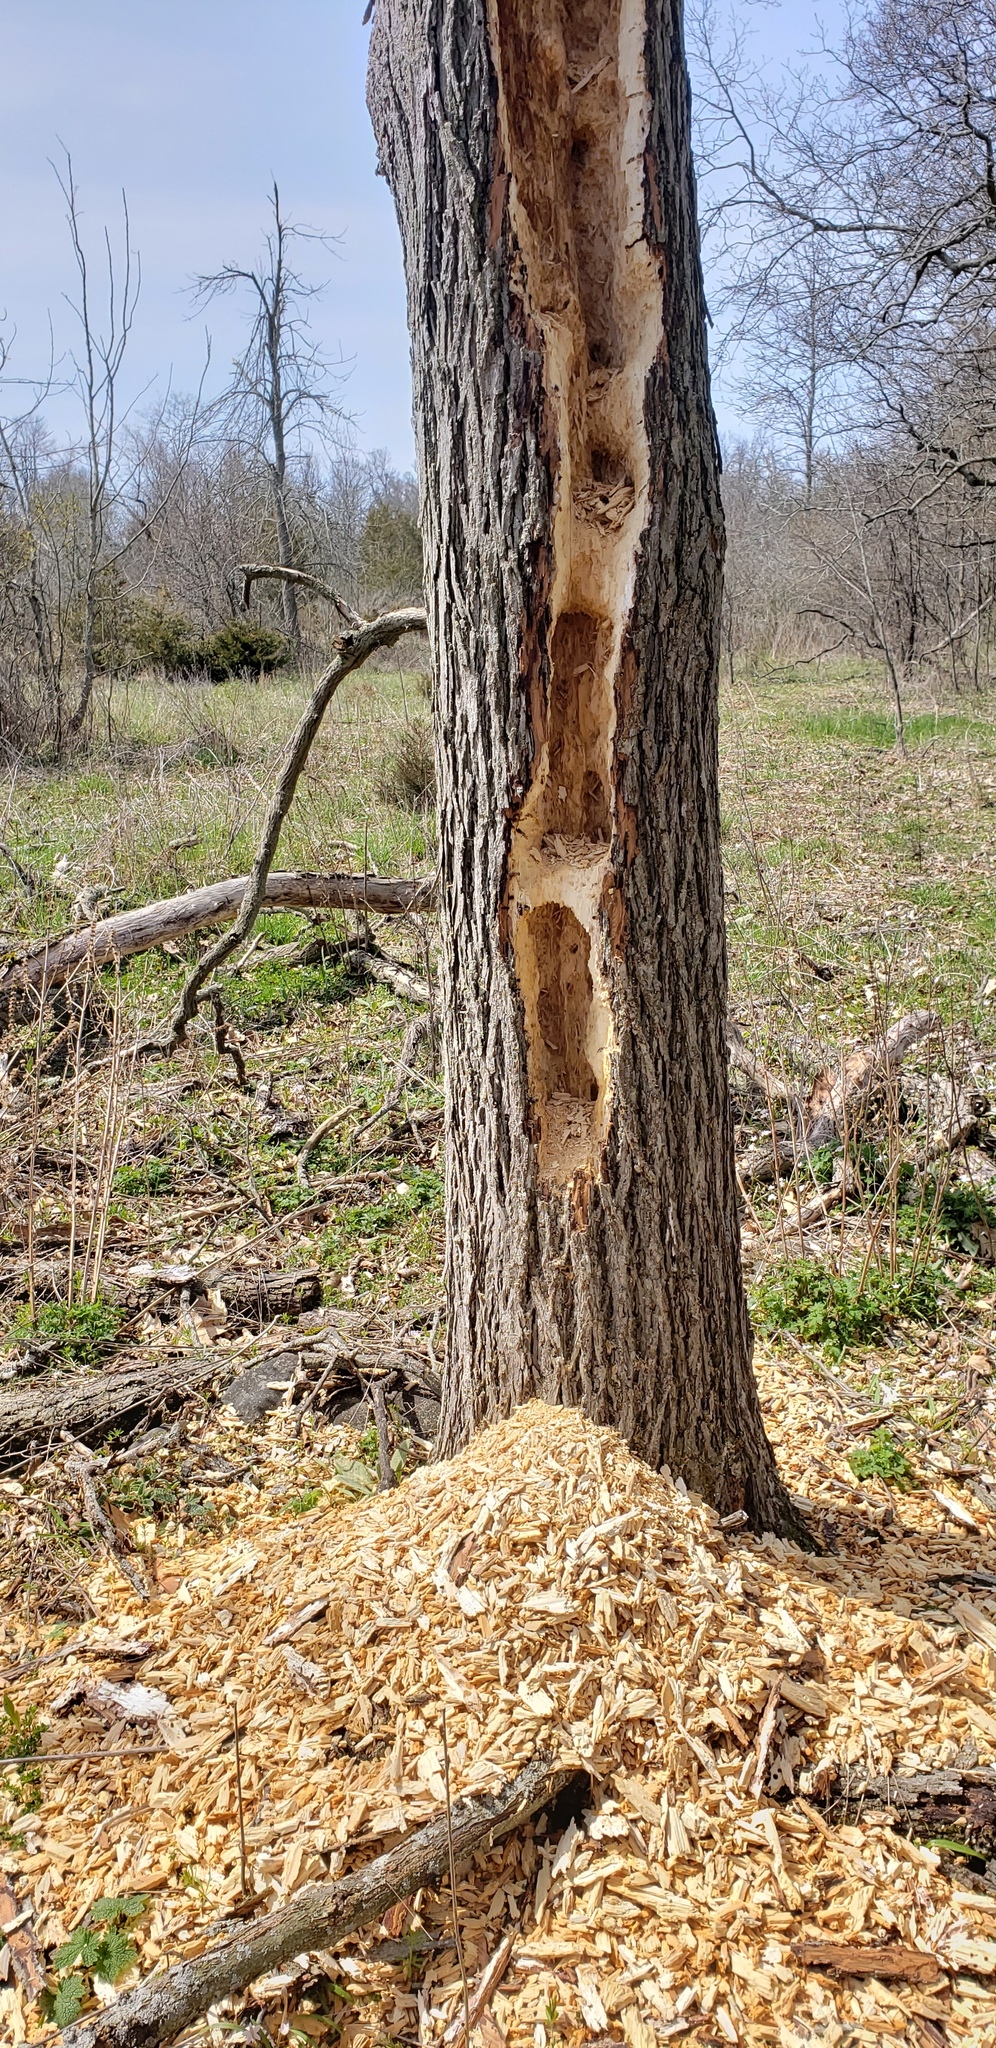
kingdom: Animalia
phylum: Chordata
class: Aves
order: Piciformes
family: Picidae
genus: Dryocopus
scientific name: Dryocopus pileatus
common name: Pileated woodpecker
